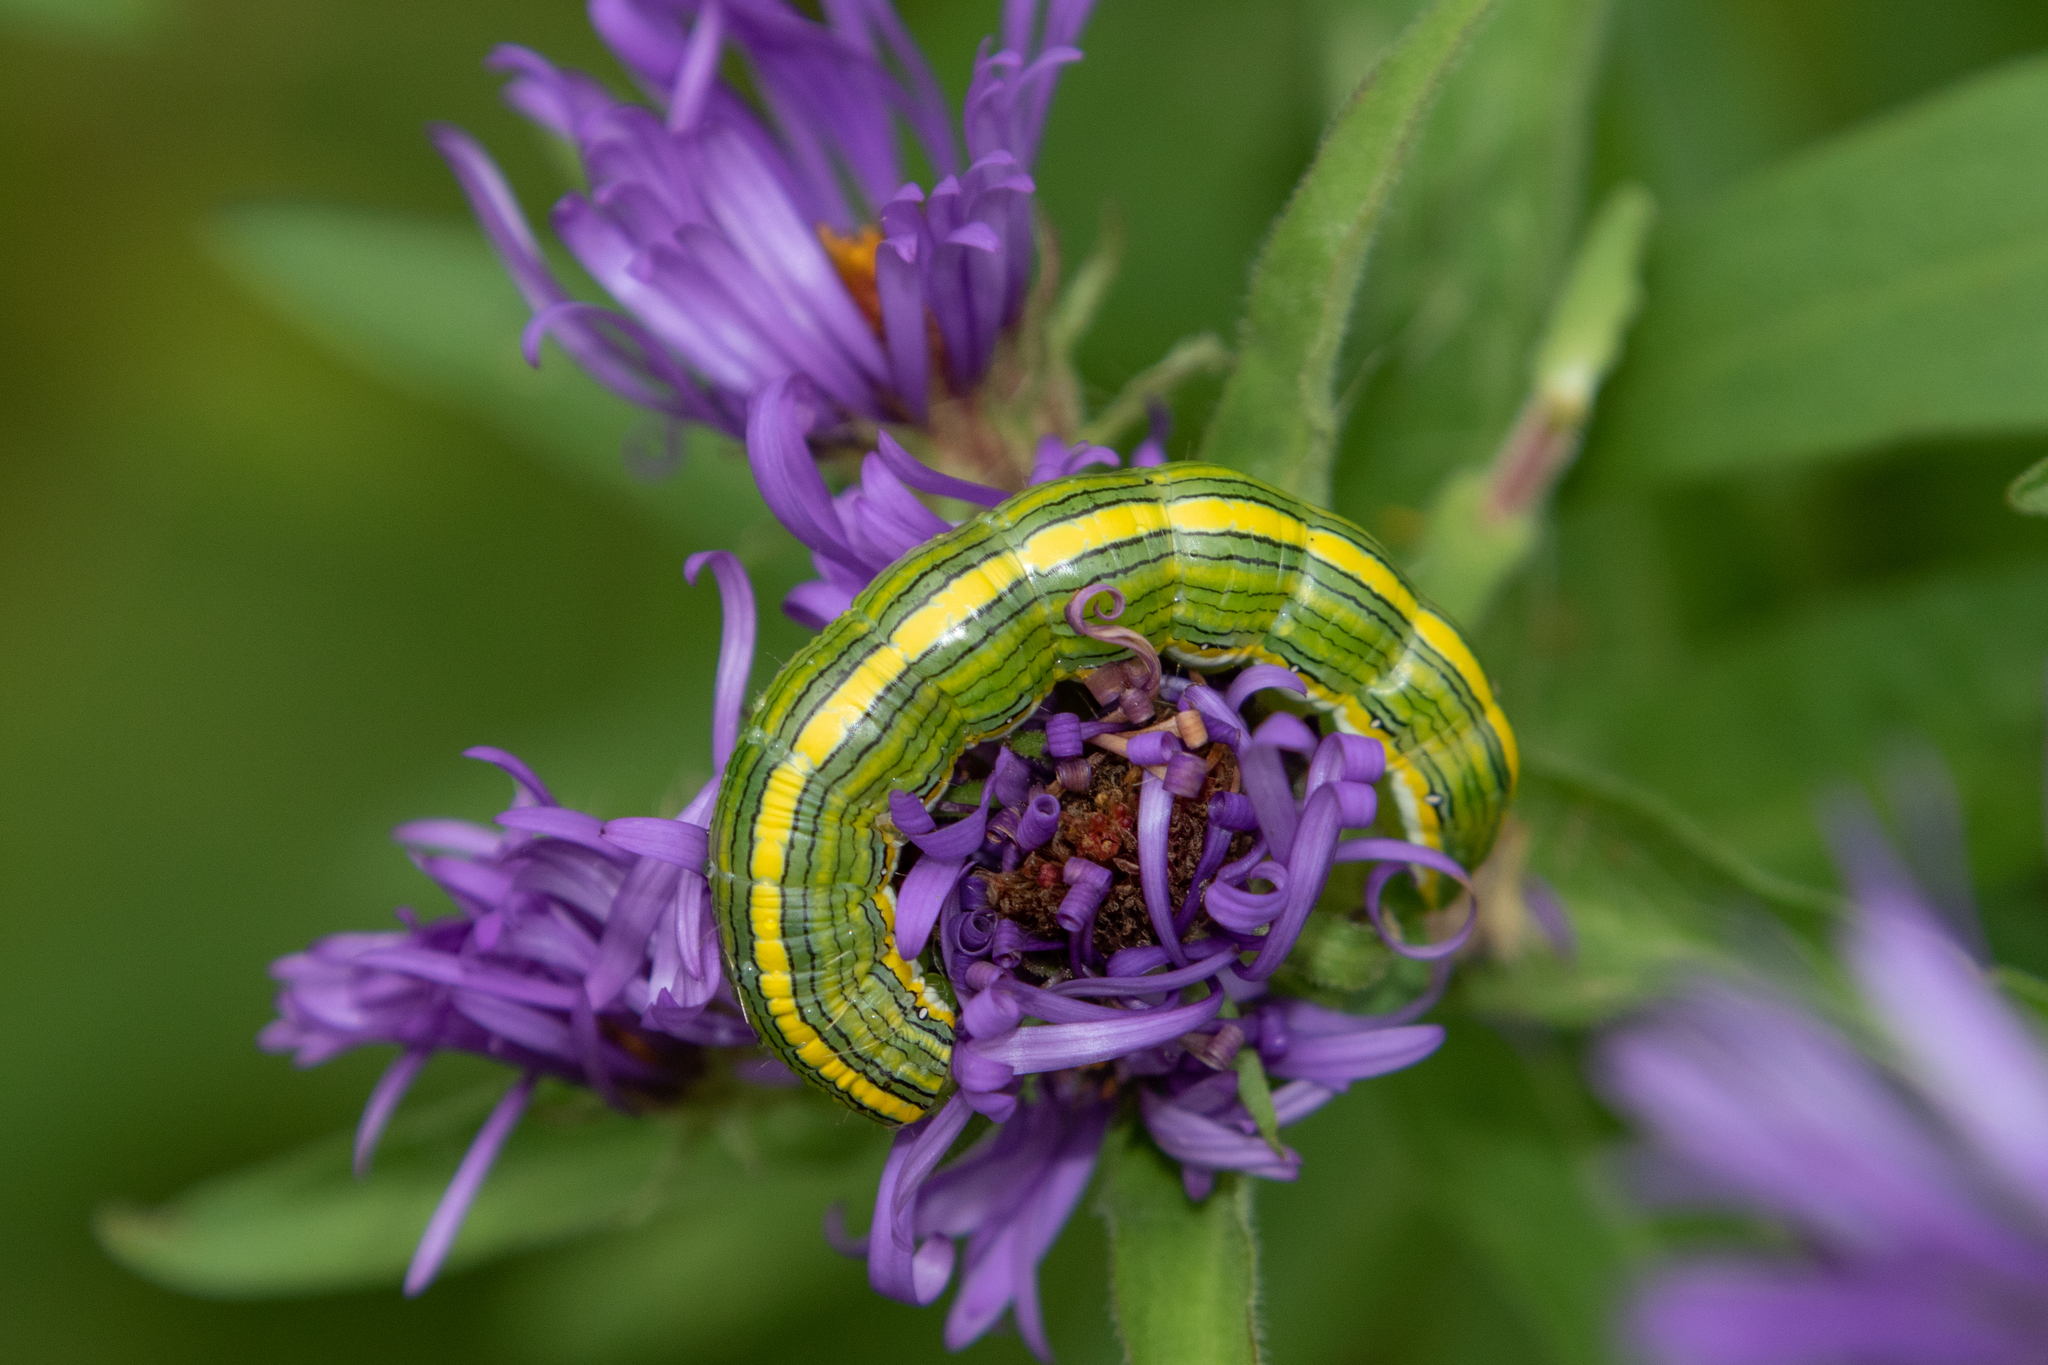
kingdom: Animalia
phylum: Arthropoda
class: Insecta
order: Lepidoptera
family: Noctuidae
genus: Cucullia
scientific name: Cucullia asteroides
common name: Asteroid moth
